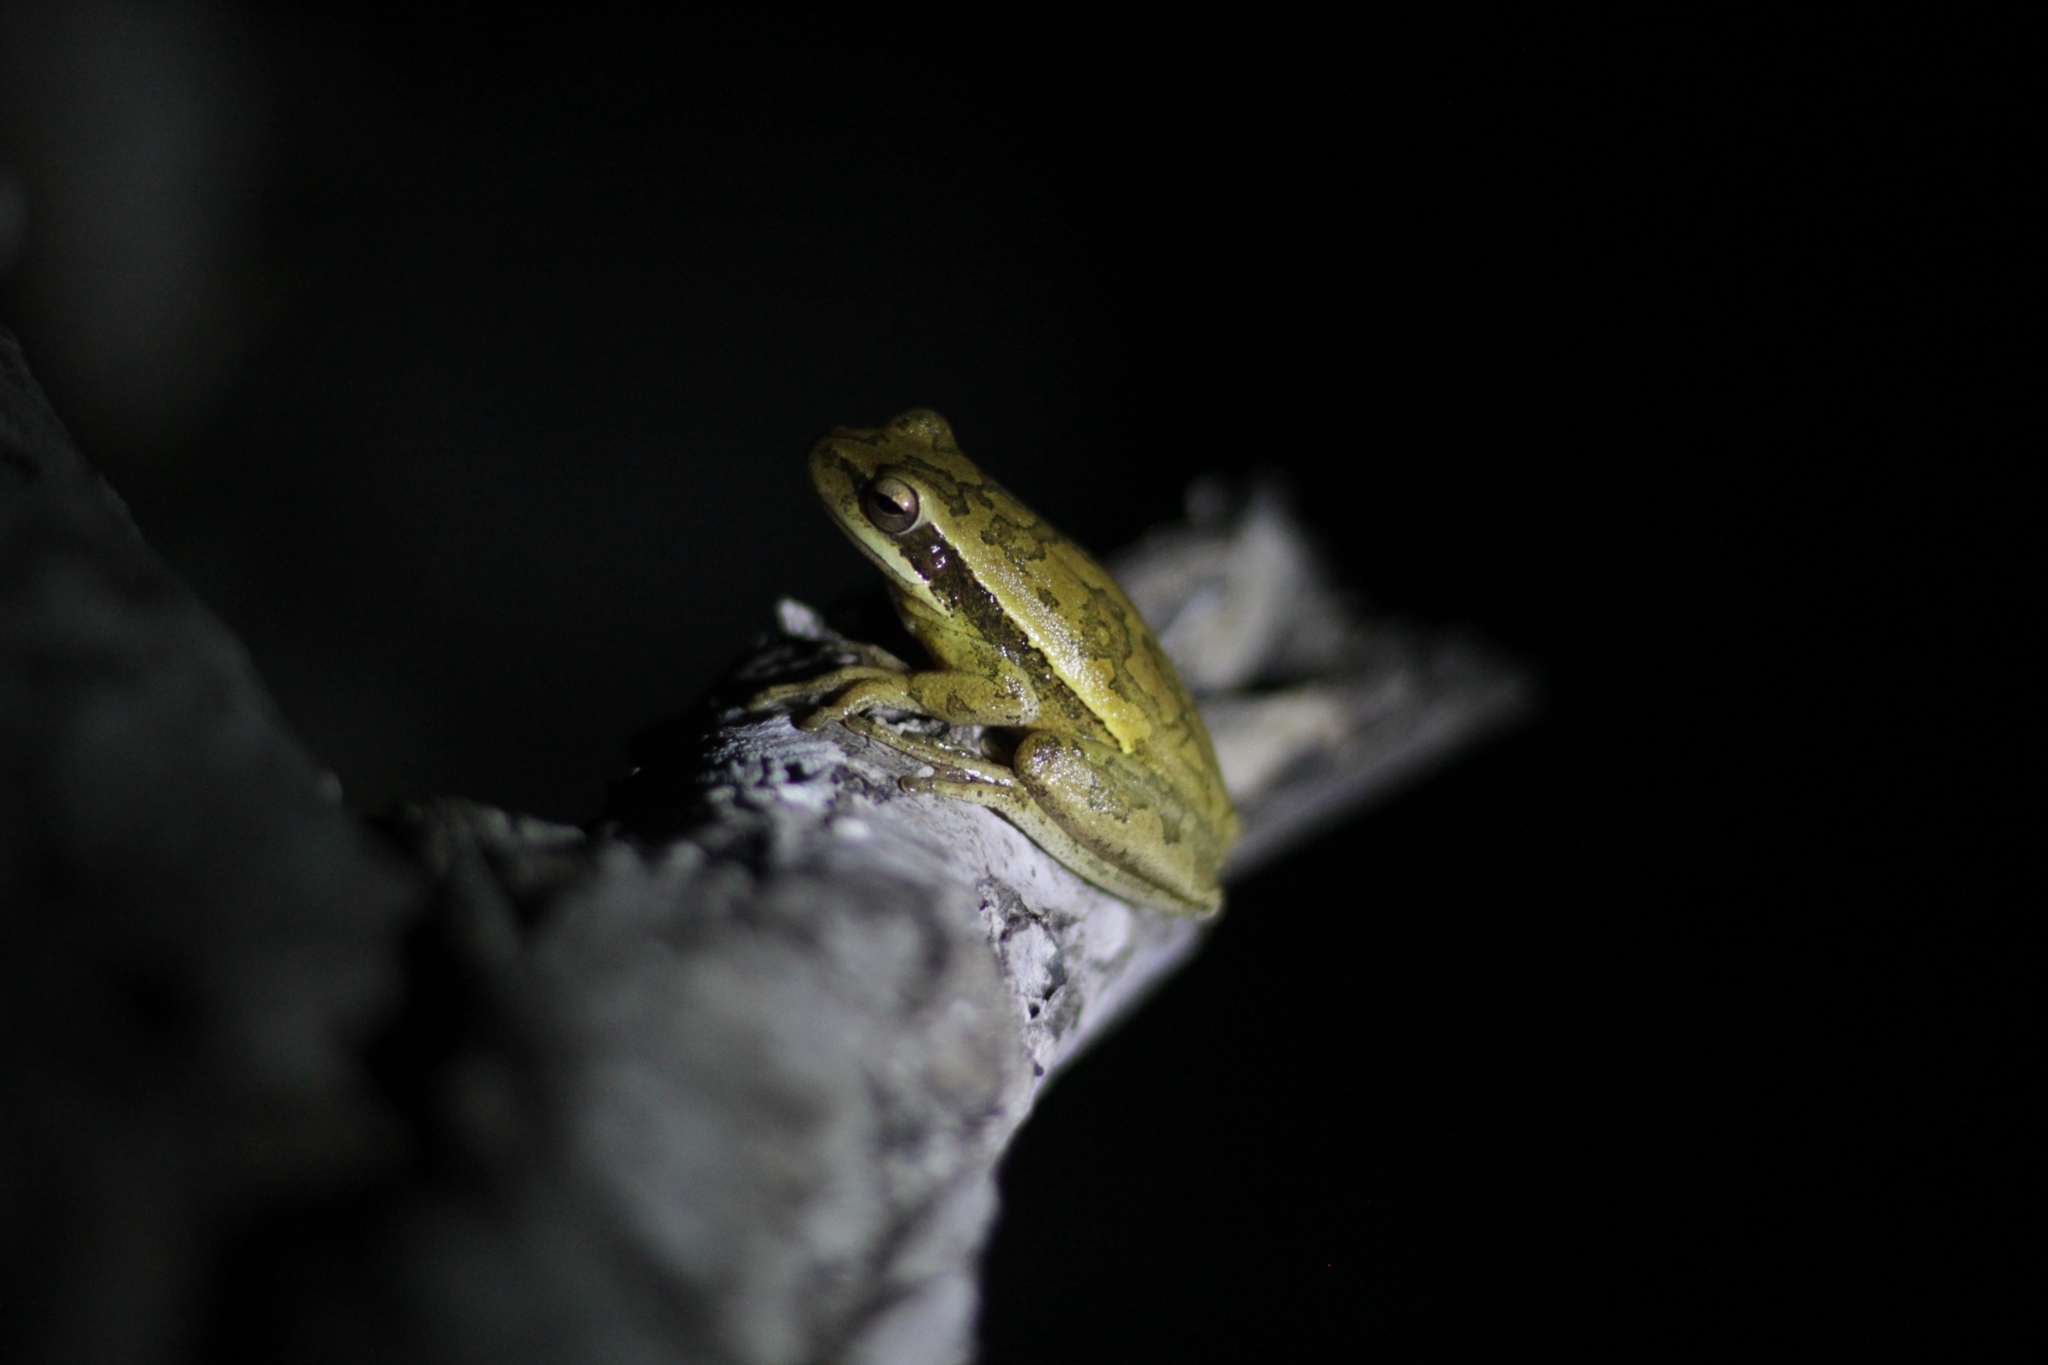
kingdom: Animalia
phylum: Chordata
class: Amphibia
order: Anura
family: Hylidae
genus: Boana
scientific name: Boana pulchella
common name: Montevideo treefrog
